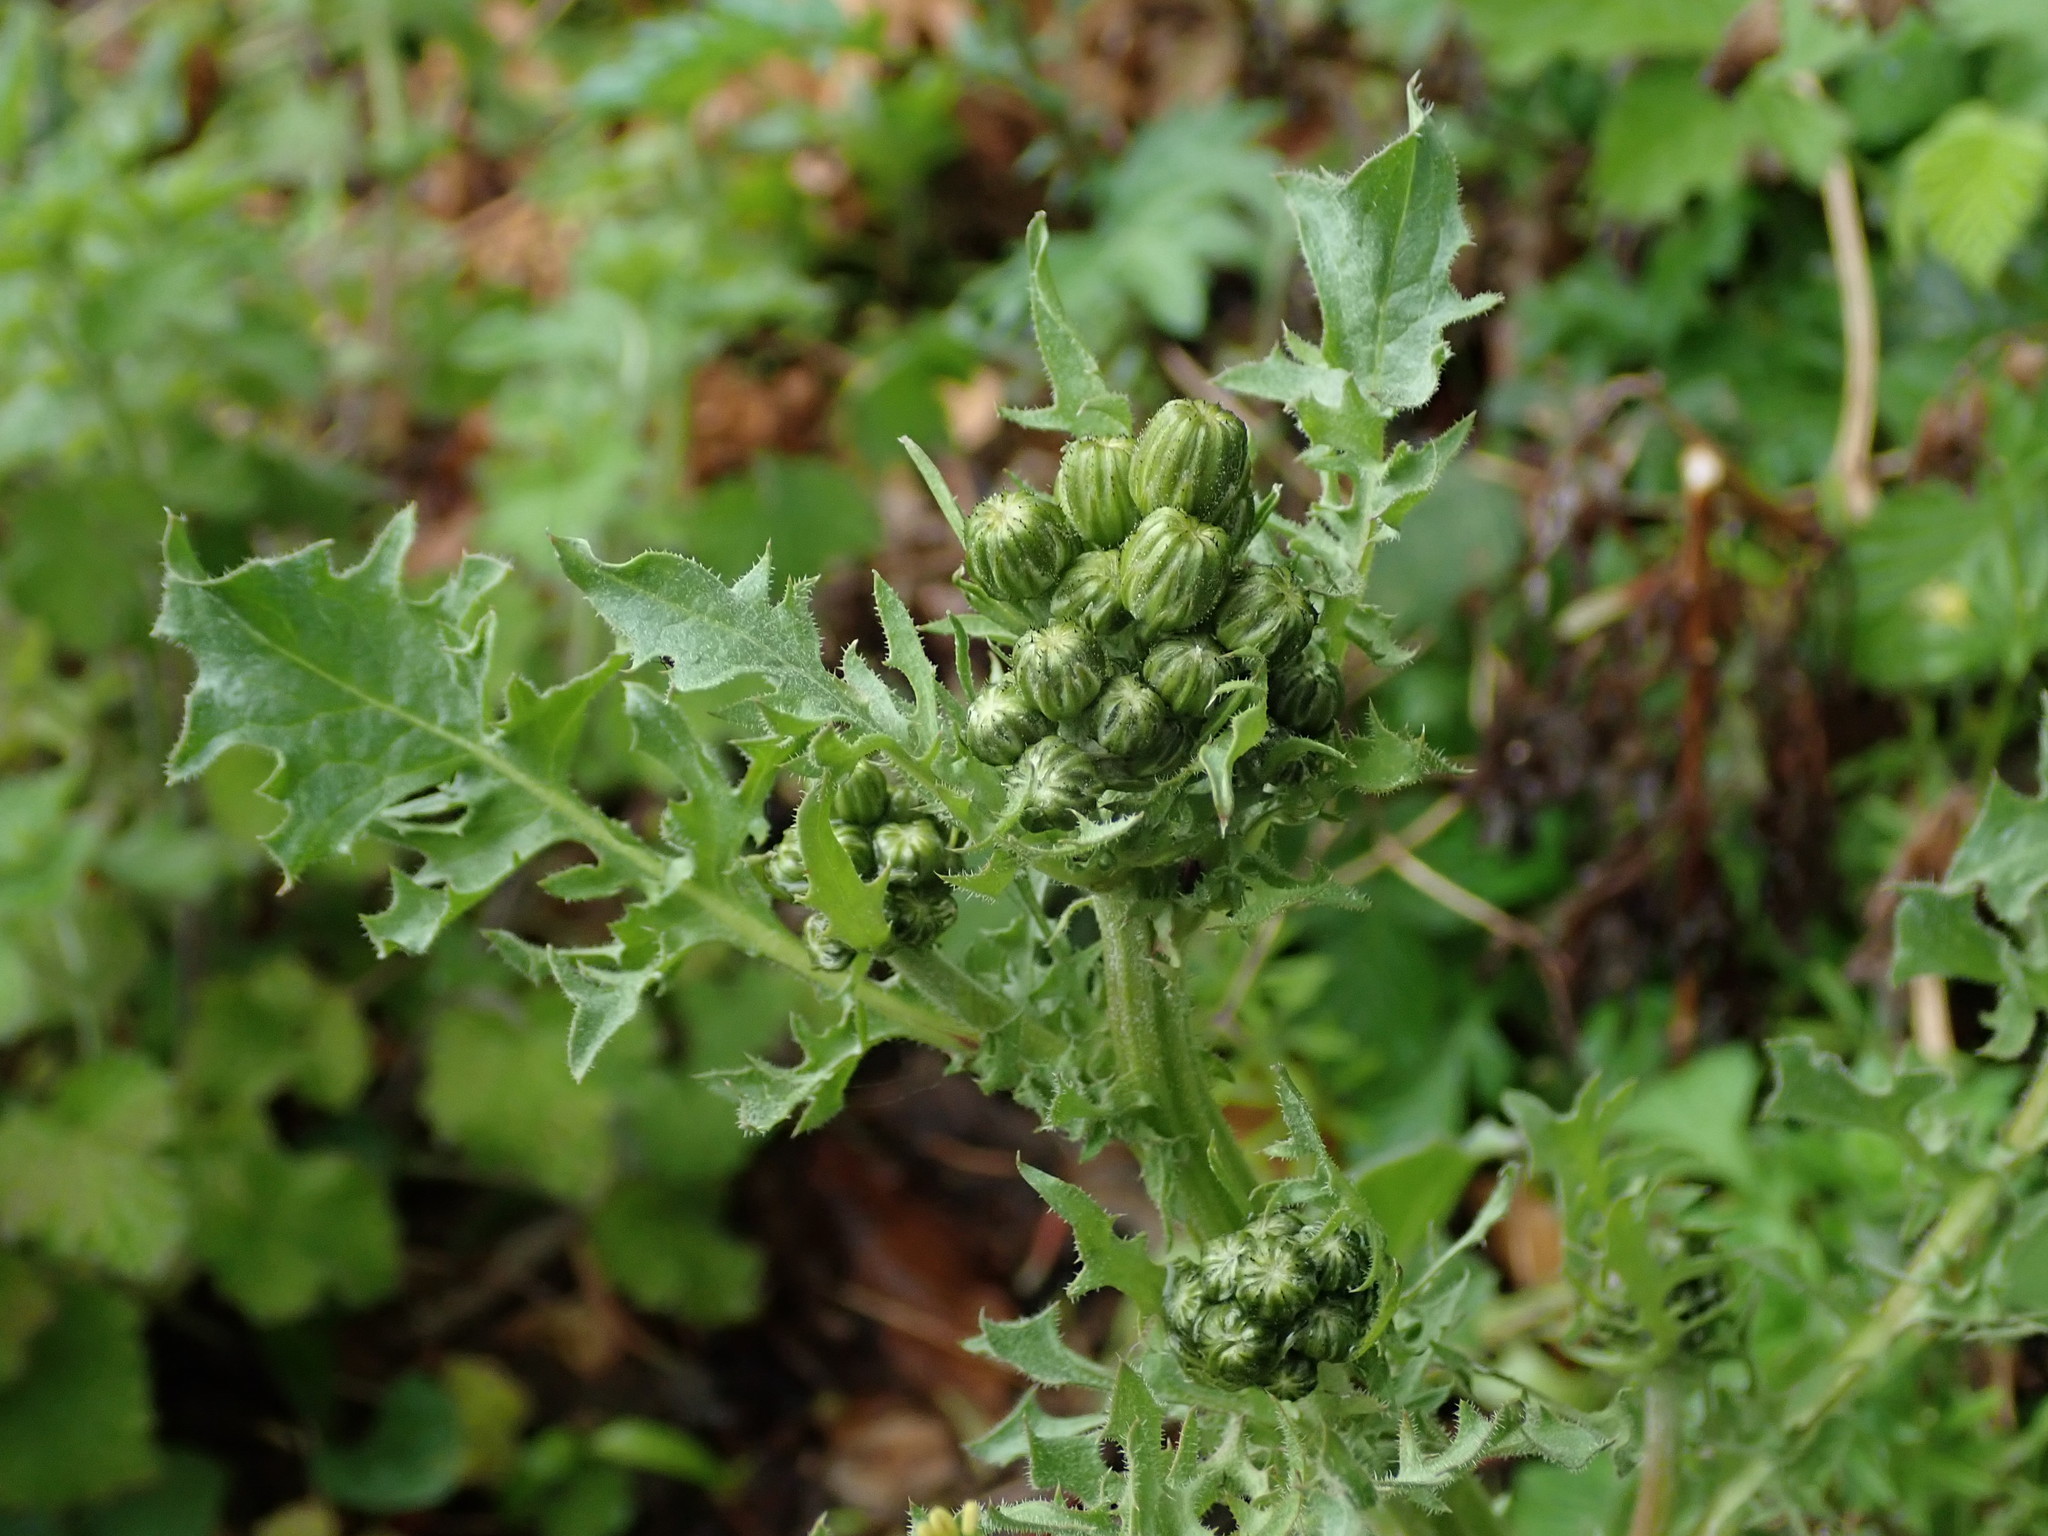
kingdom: Plantae
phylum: Tracheophyta
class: Magnoliopsida
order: Asterales
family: Asteraceae
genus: Crepis
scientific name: Crepis vesicaria
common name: Beaked hawksbeard
